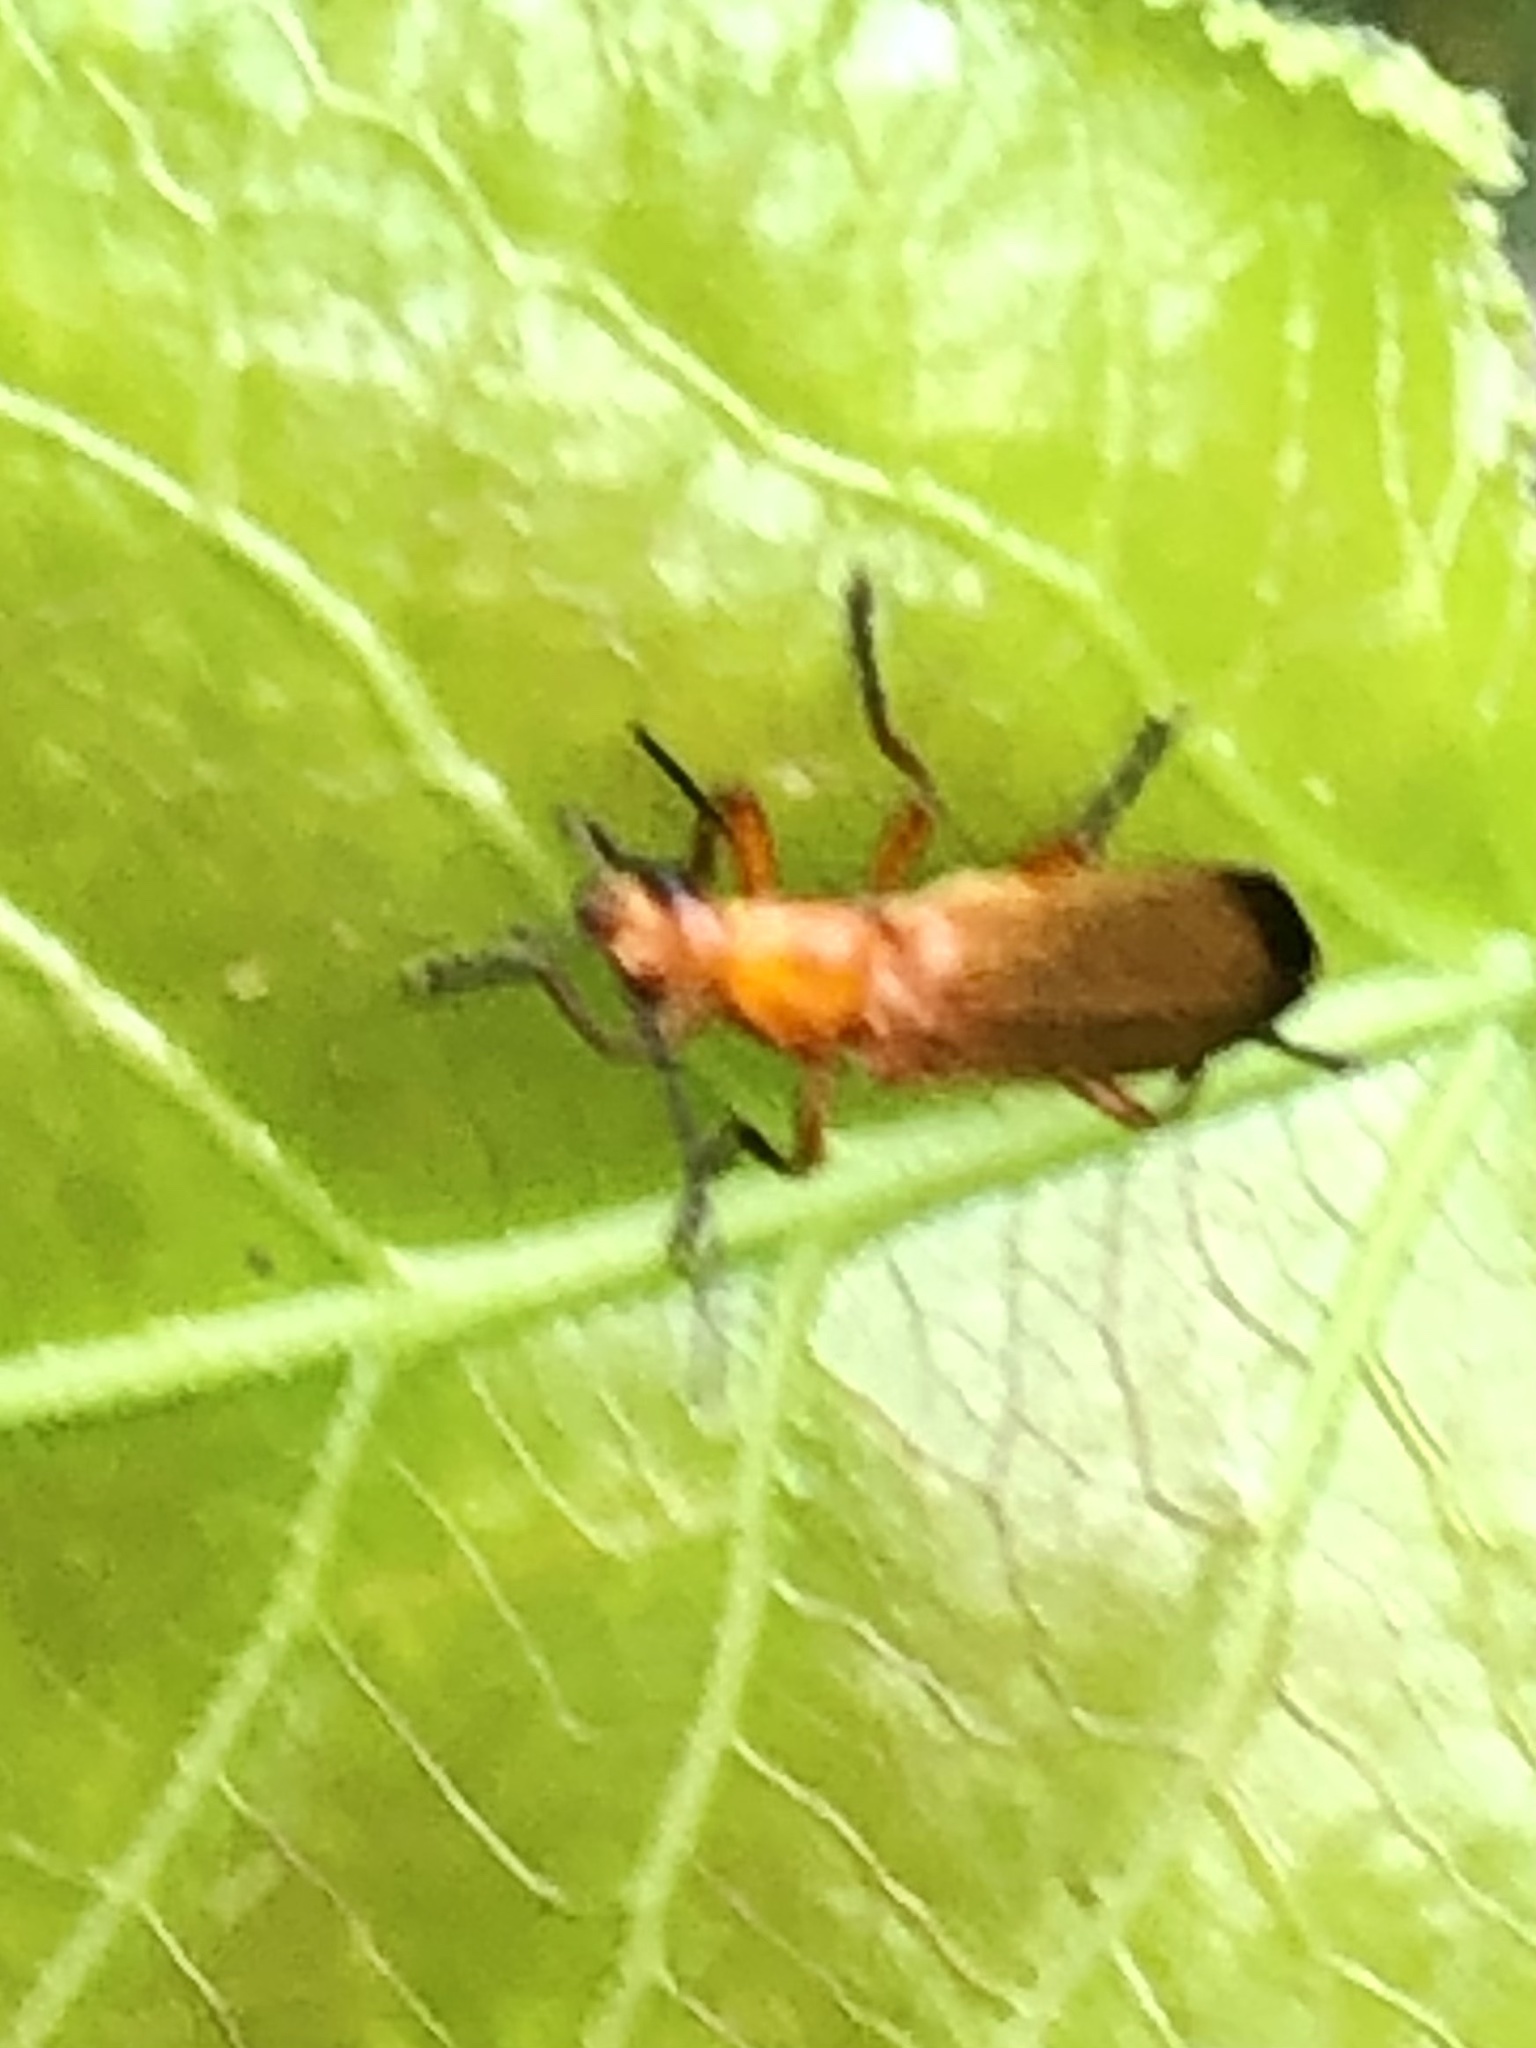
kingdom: Animalia
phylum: Arthropoda
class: Insecta
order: Coleoptera
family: Cantharidae
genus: Rhagonycha
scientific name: Rhagonycha fulva
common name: Common red soldier beetle
